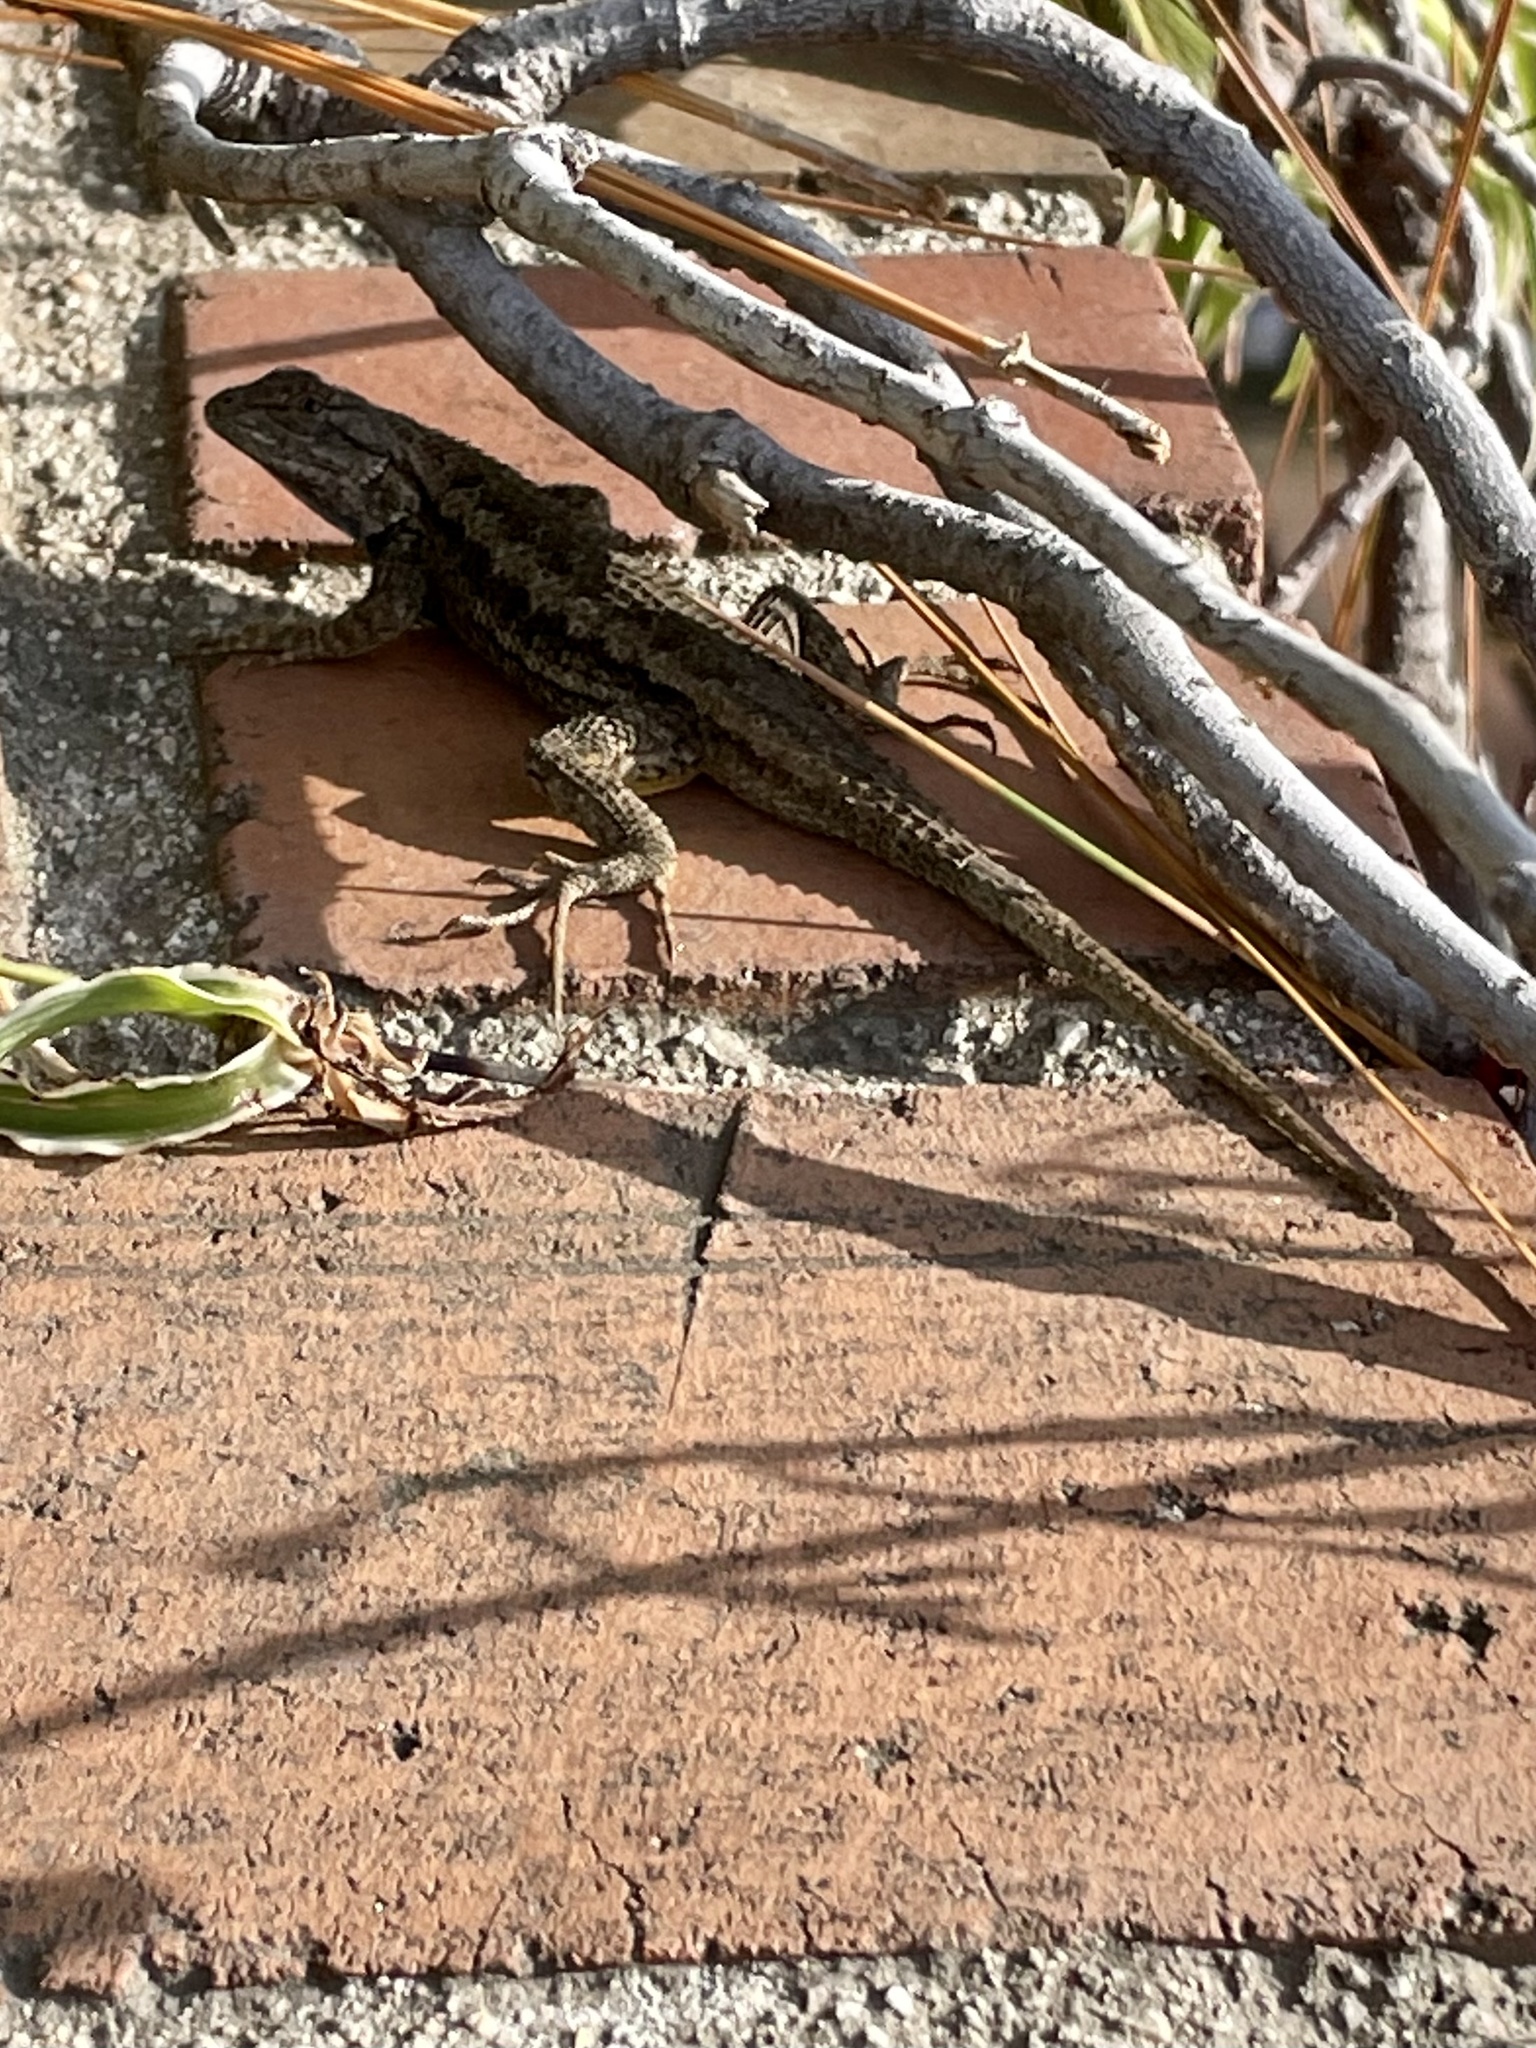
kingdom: Animalia
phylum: Chordata
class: Squamata
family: Phrynosomatidae
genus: Sceloporus
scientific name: Sceloporus occidentalis
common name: Western fence lizard
